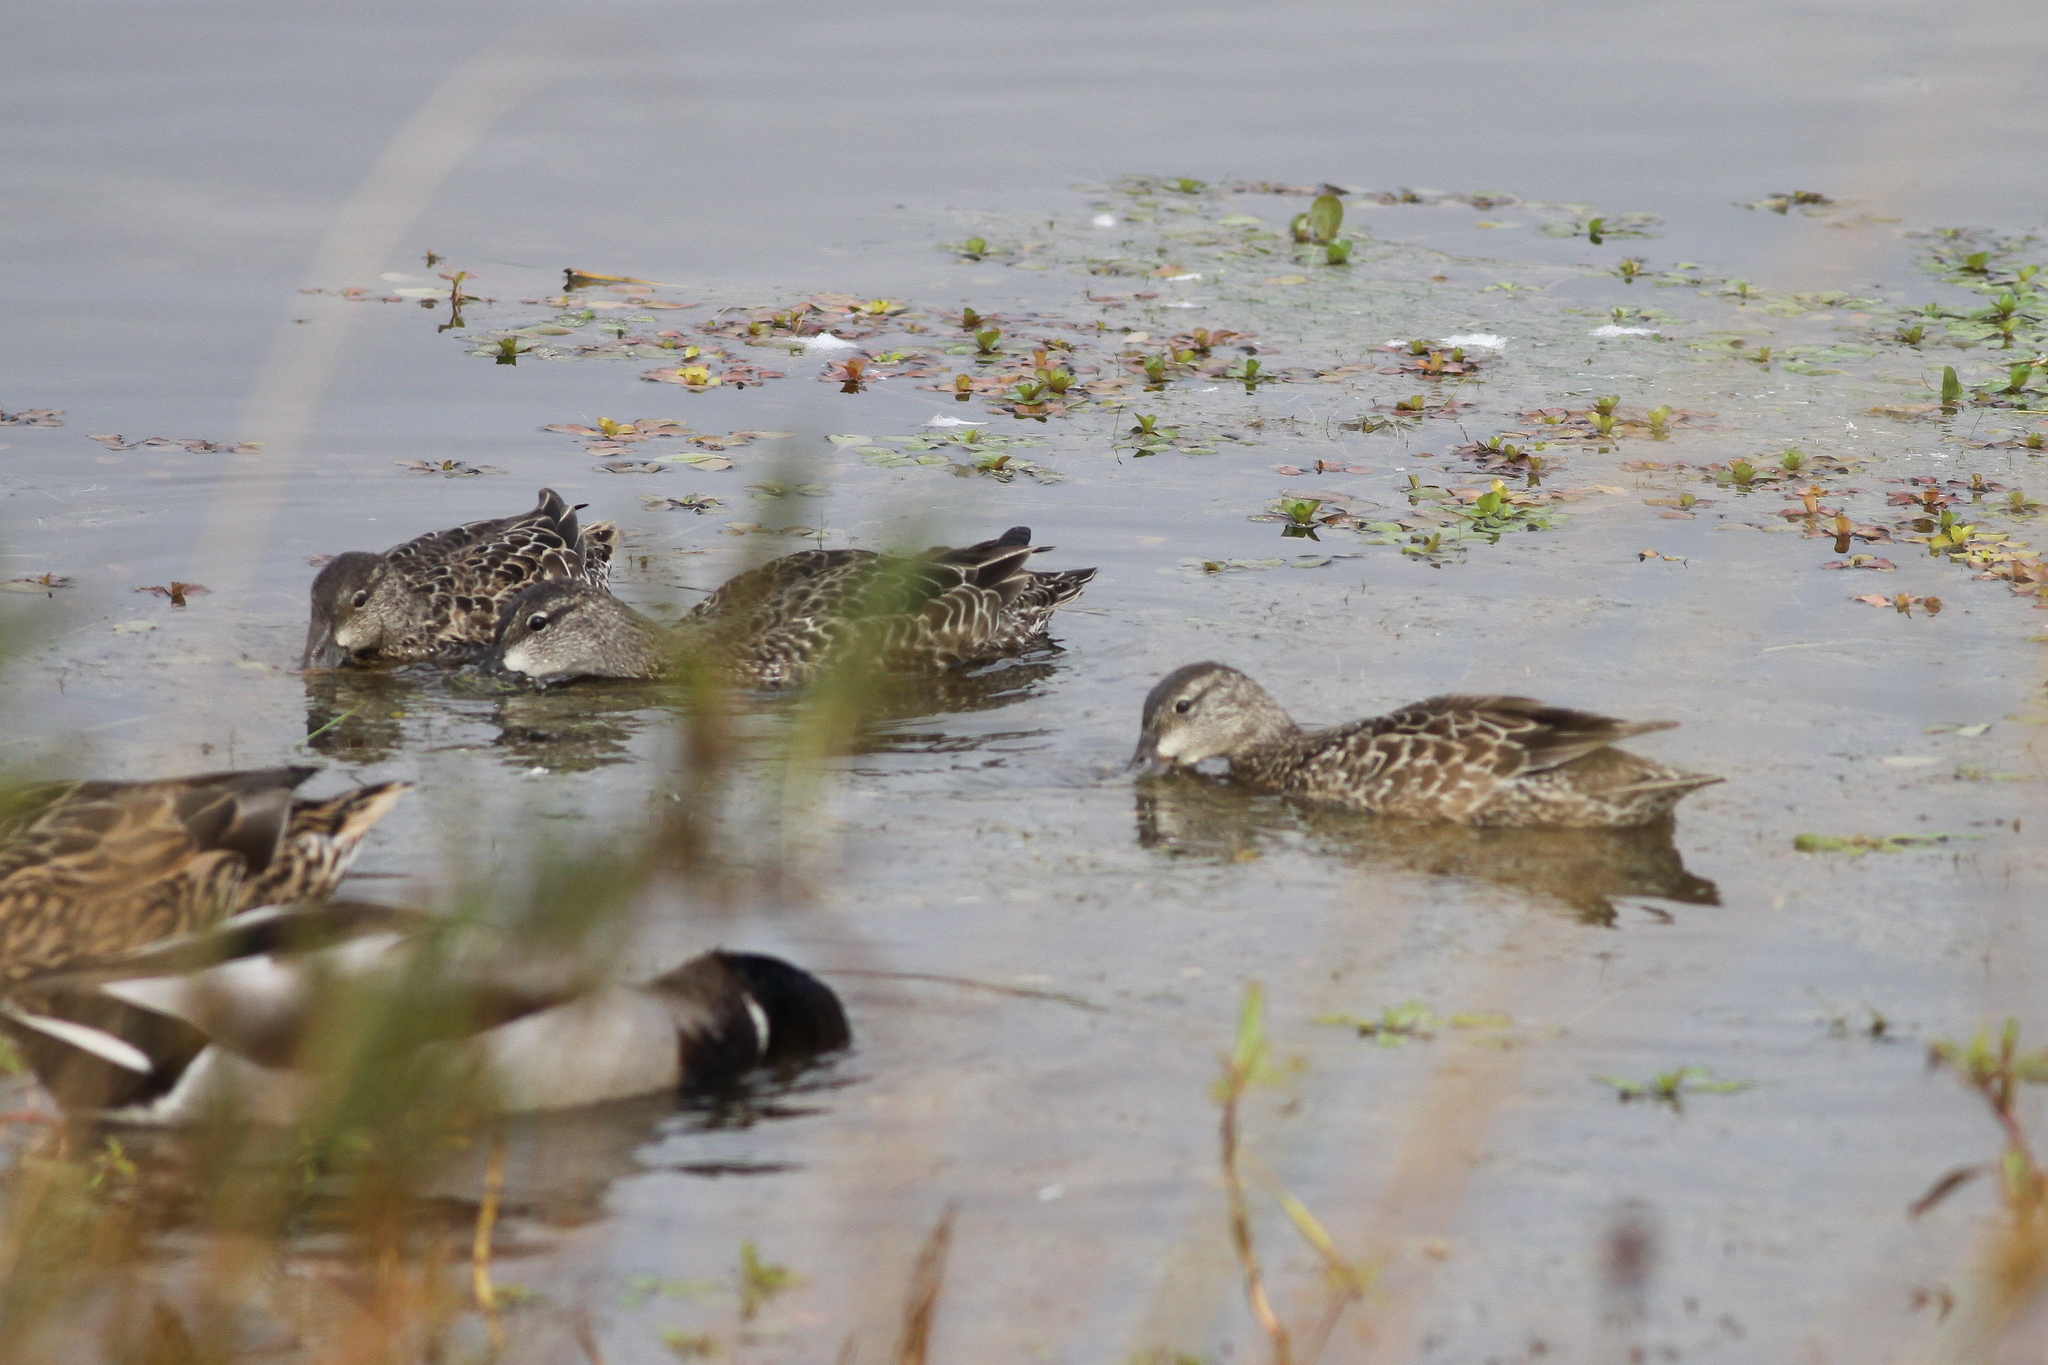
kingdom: Animalia
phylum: Chordata
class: Aves
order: Anseriformes
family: Anatidae
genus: Spatula
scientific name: Spatula discors
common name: Blue-winged teal
